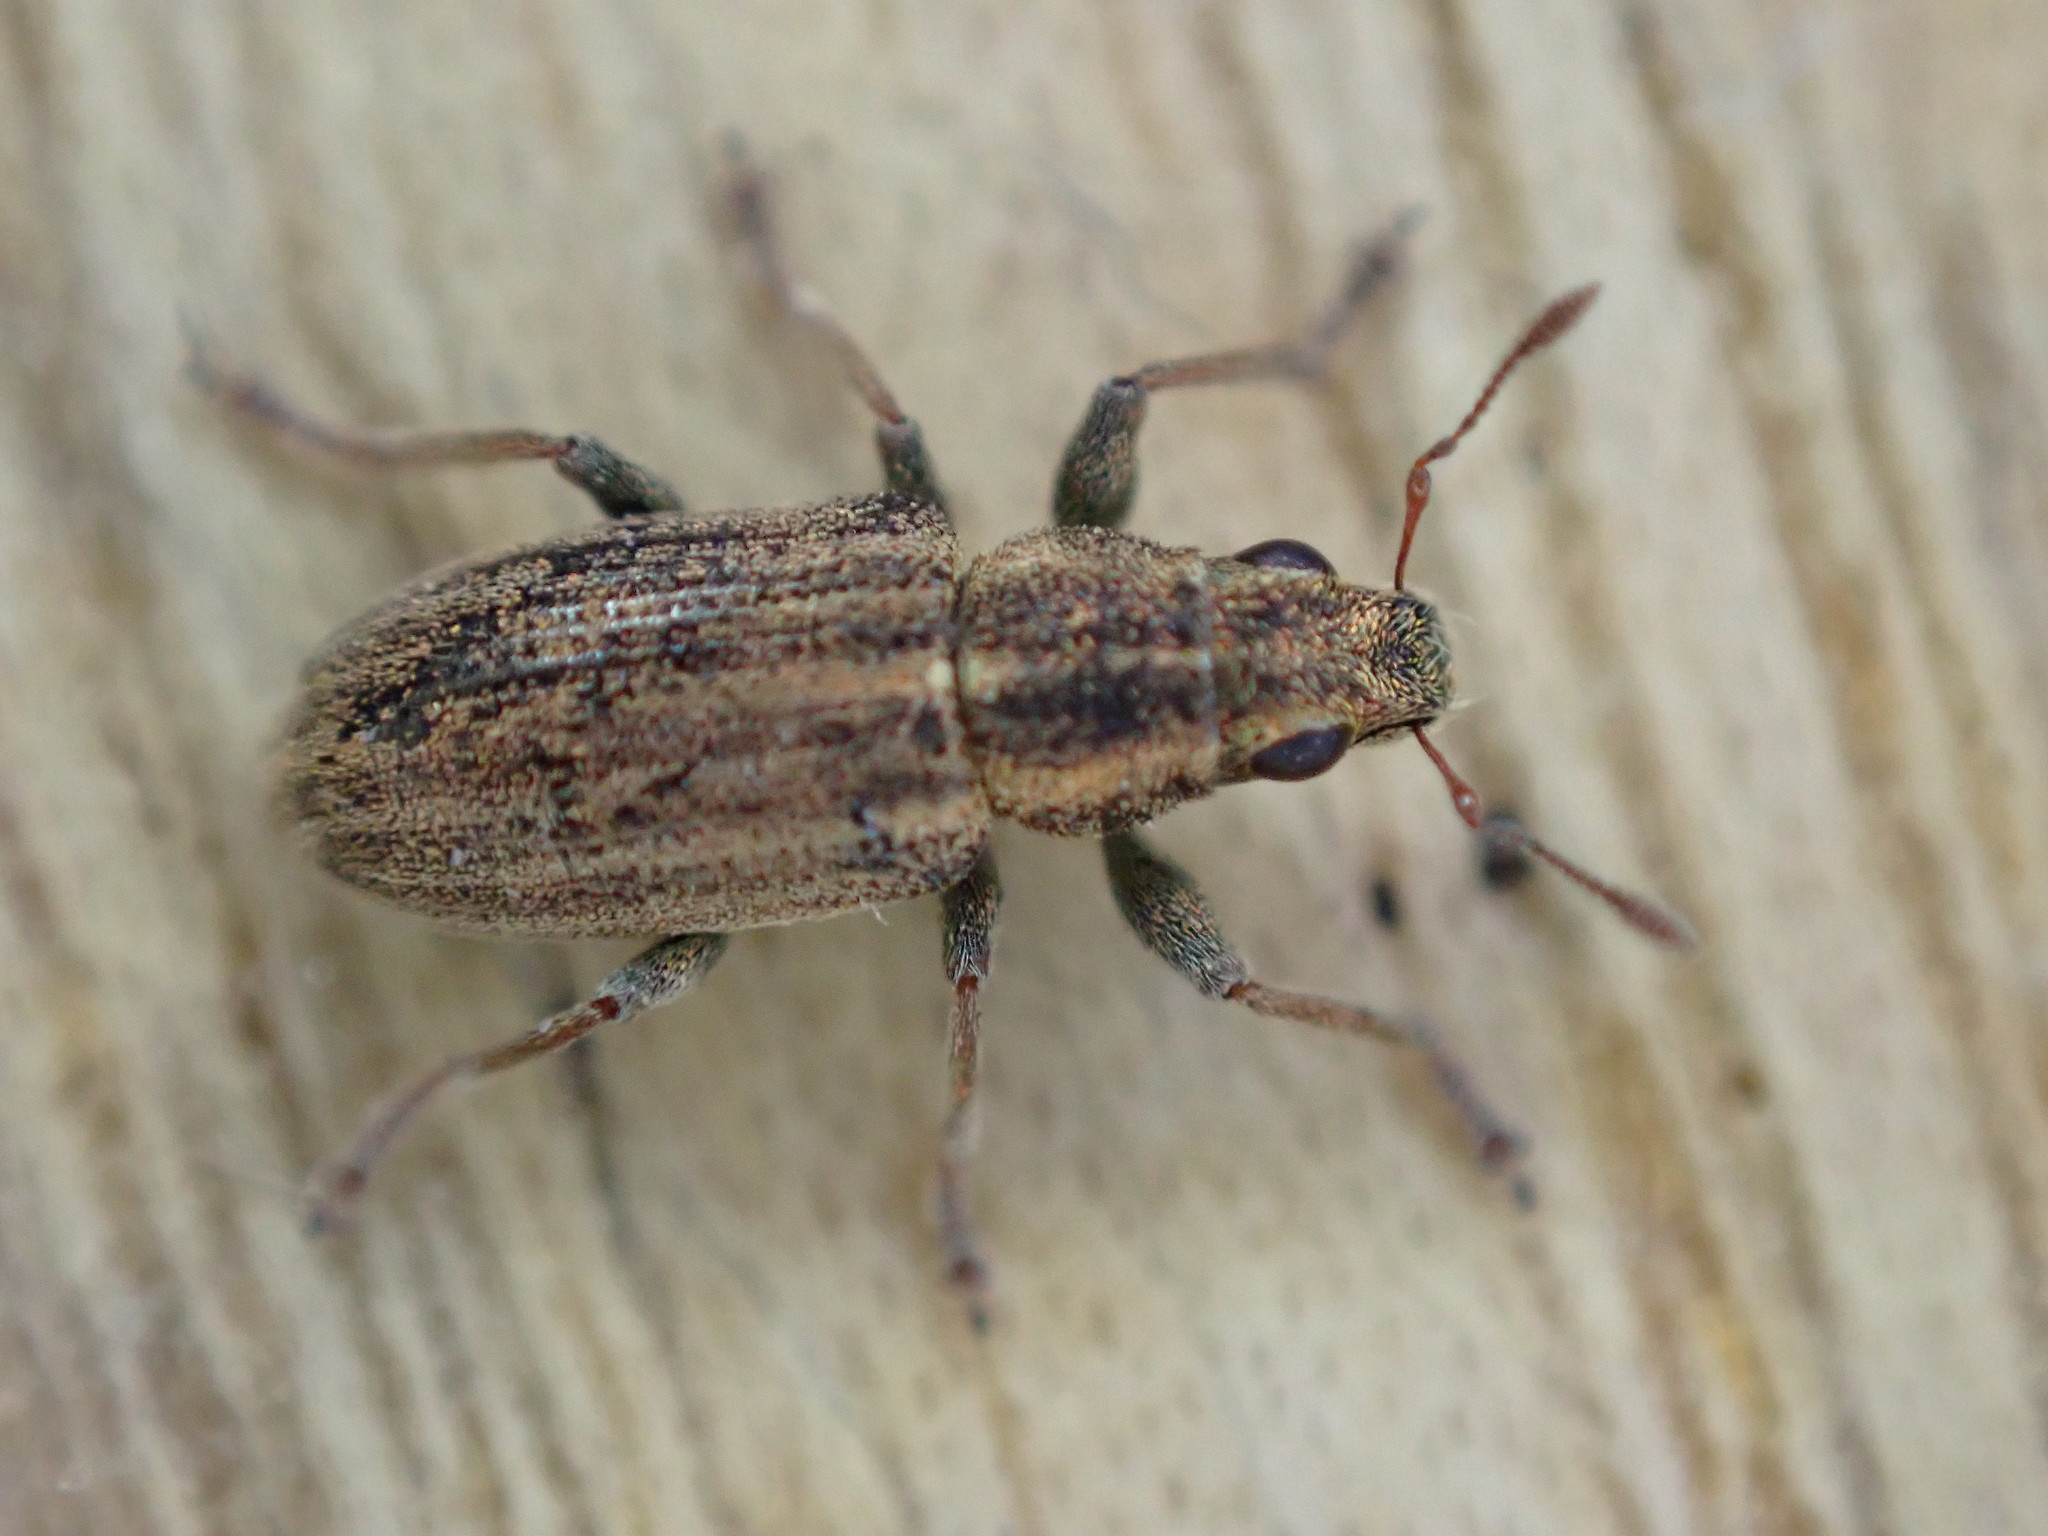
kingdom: Animalia
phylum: Arthropoda
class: Insecta
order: Coleoptera
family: Curculionidae
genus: Sitona
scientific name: Sitona lineatus
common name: Weevil
